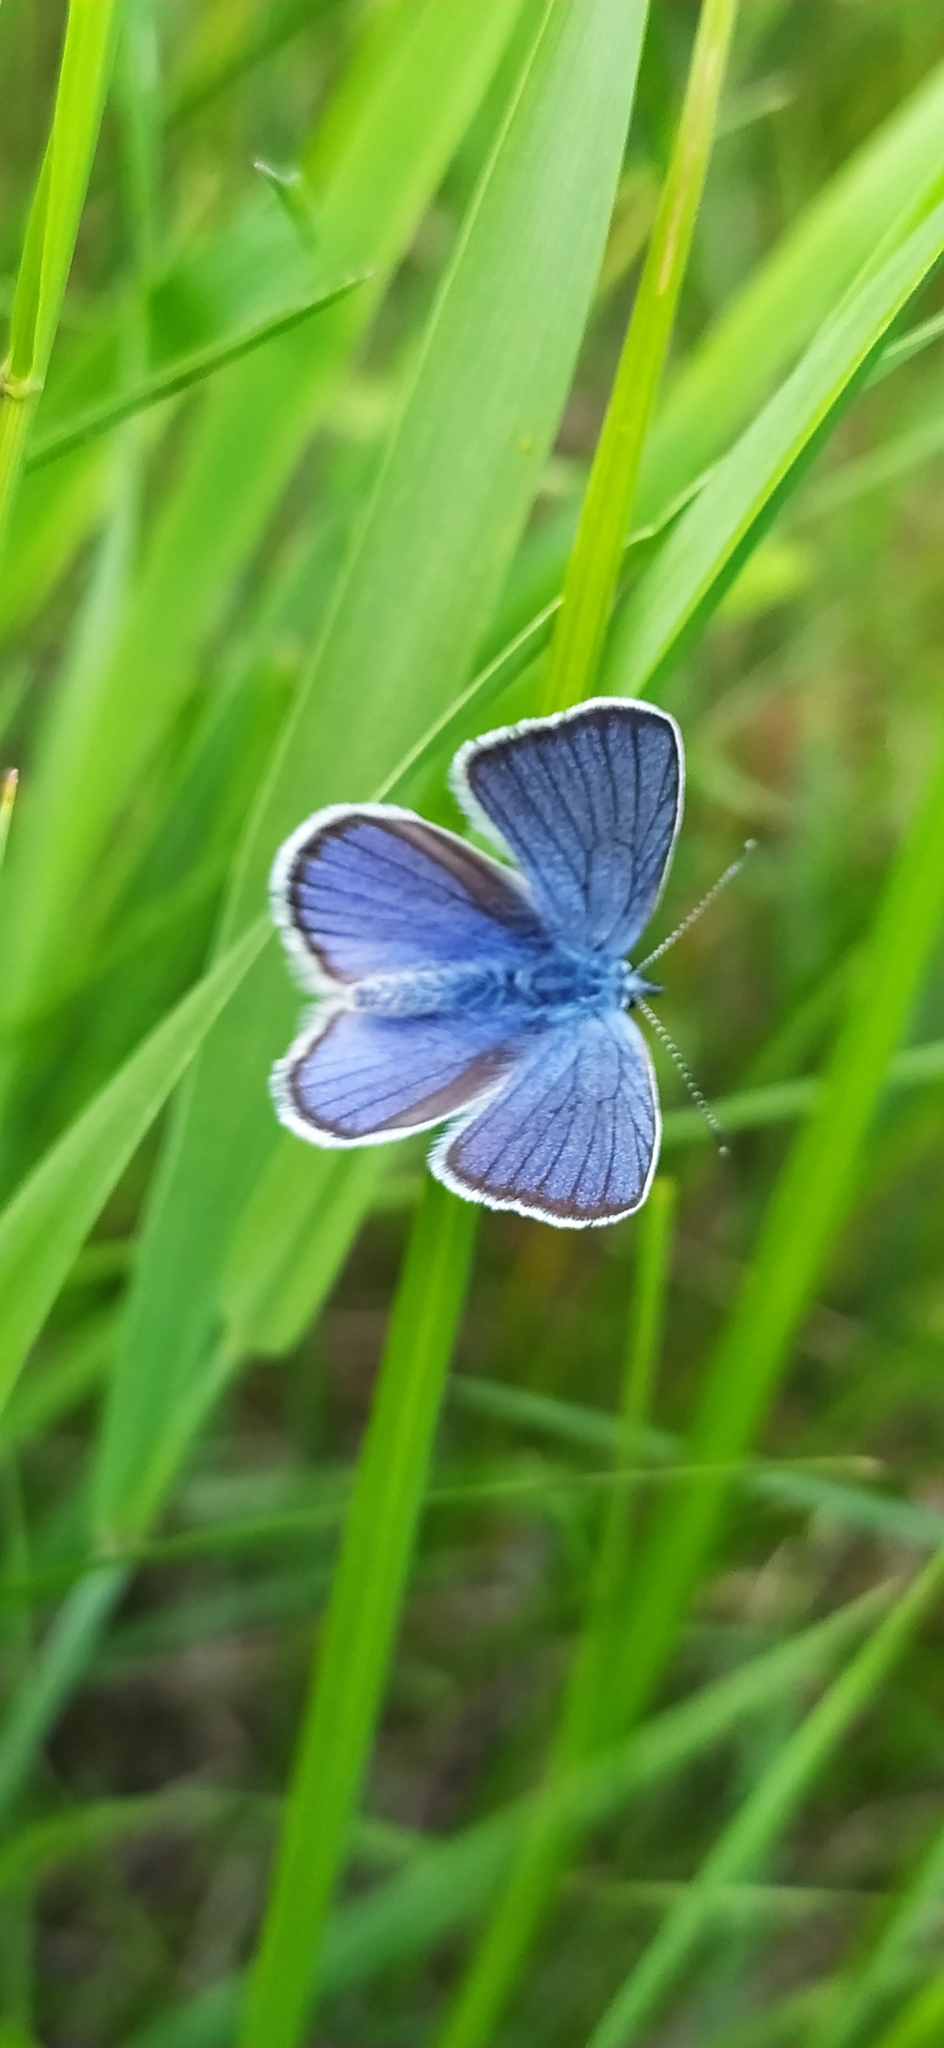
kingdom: Animalia
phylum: Arthropoda
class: Insecta
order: Lepidoptera
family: Lycaenidae
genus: Cyaniris
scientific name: Cyaniris semiargus
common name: Mazarine blue
